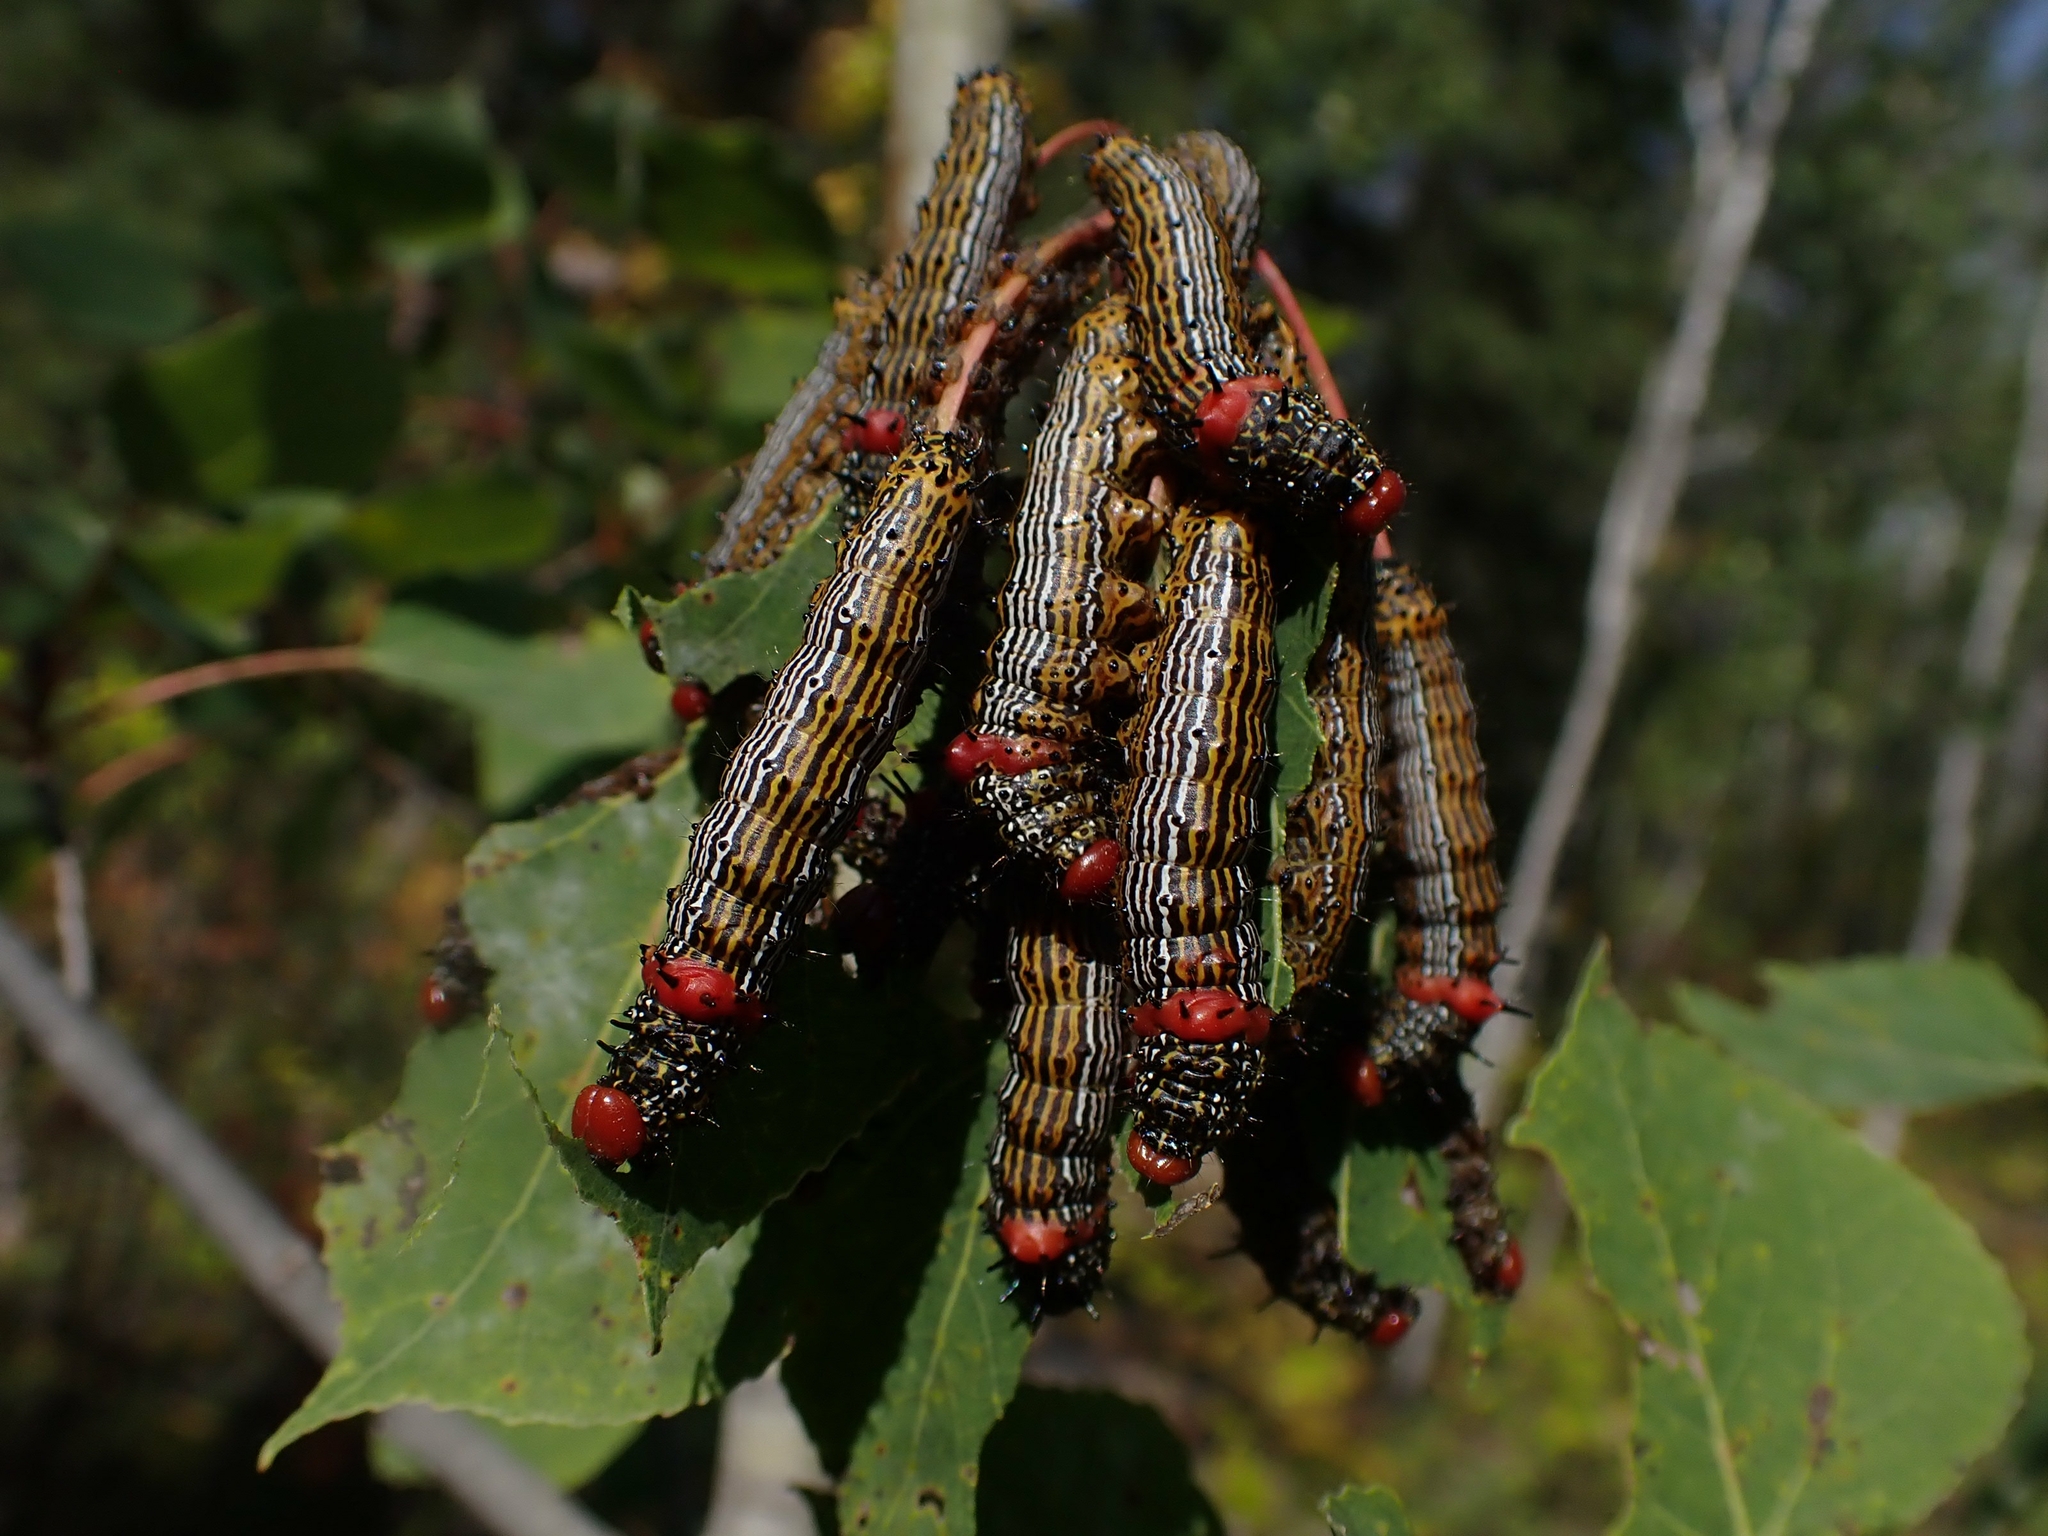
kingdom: Animalia
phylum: Arthropoda
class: Insecta
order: Lepidoptera
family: Notodontidae
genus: Schizura
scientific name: Schizura
